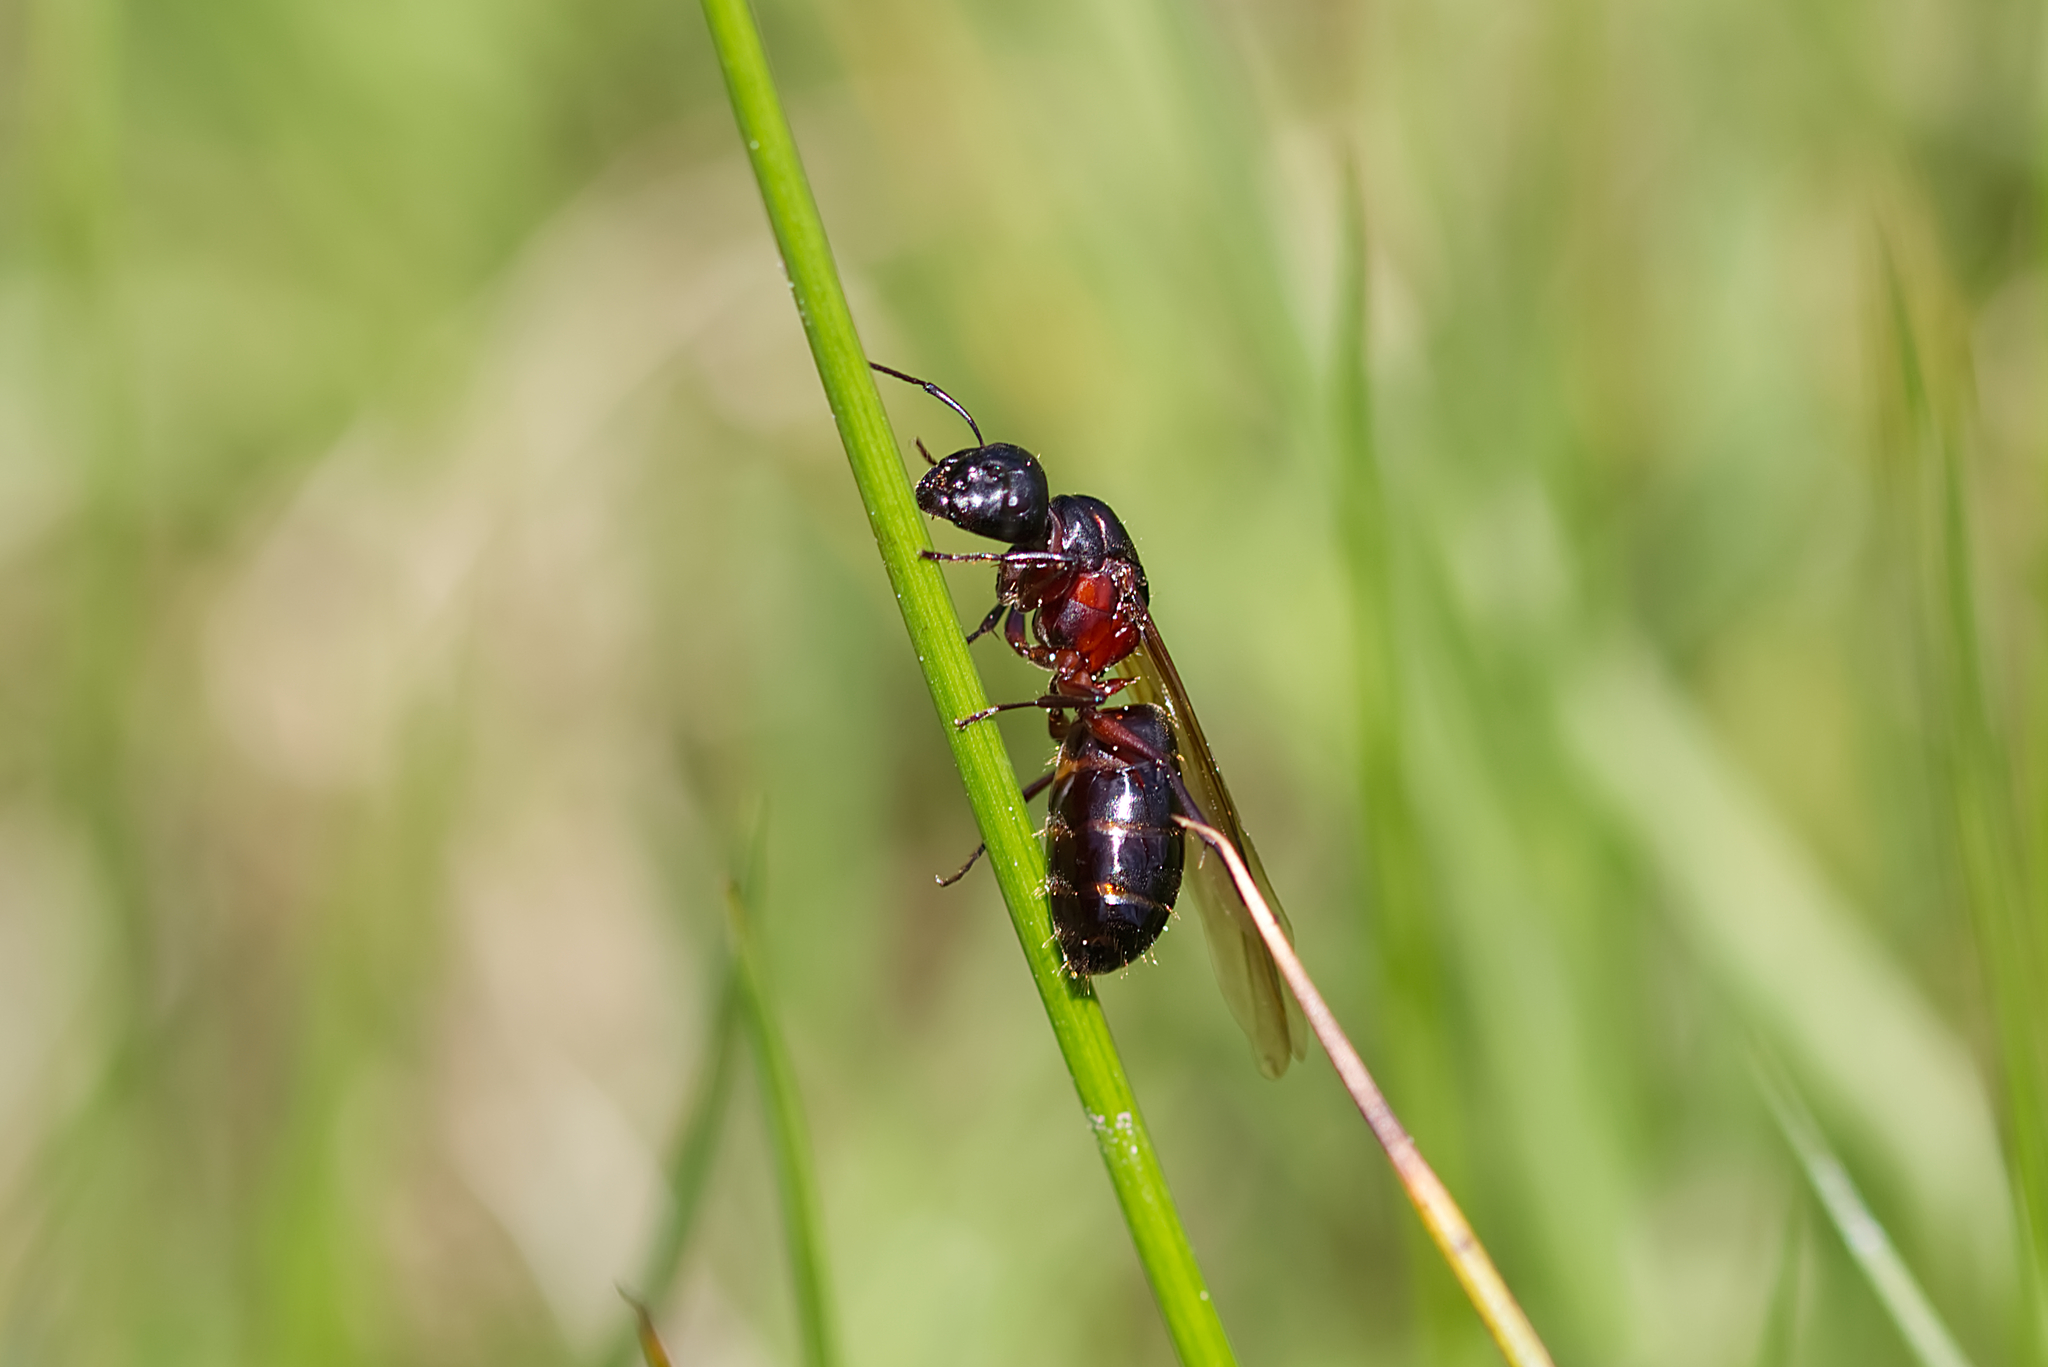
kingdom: Animalia
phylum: Arthropoda
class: Insecta
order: Hymenoptera
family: Formicidae
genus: Camponotus
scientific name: Camponotus herculeanus
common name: Hercules ant
